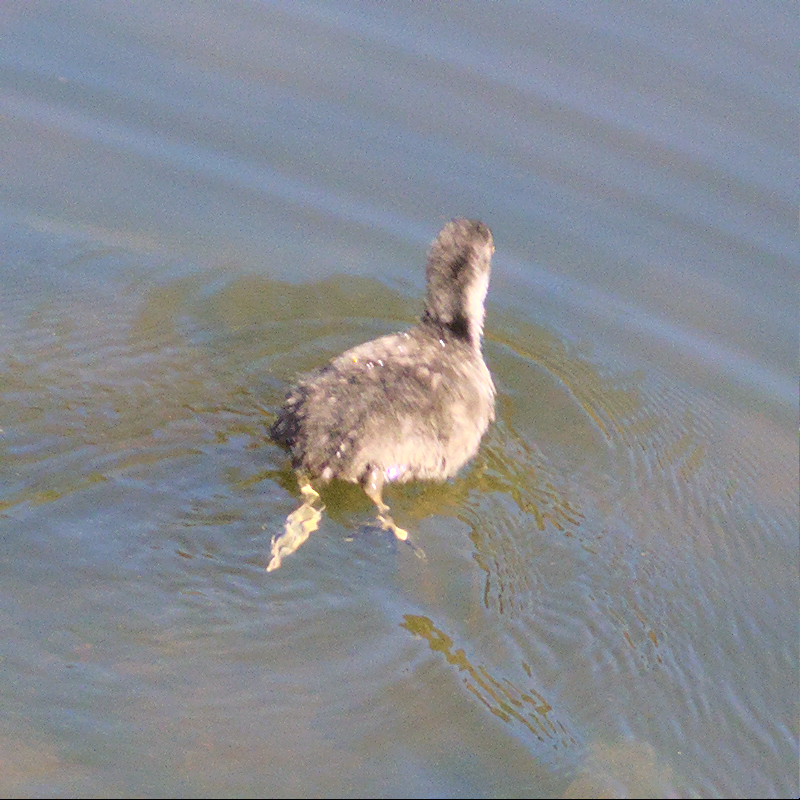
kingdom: Animalia
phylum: Chordata
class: Aves
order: Gruiformes
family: Rallidae
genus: Fulica
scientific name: Fulica atra
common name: Eurasian coot
